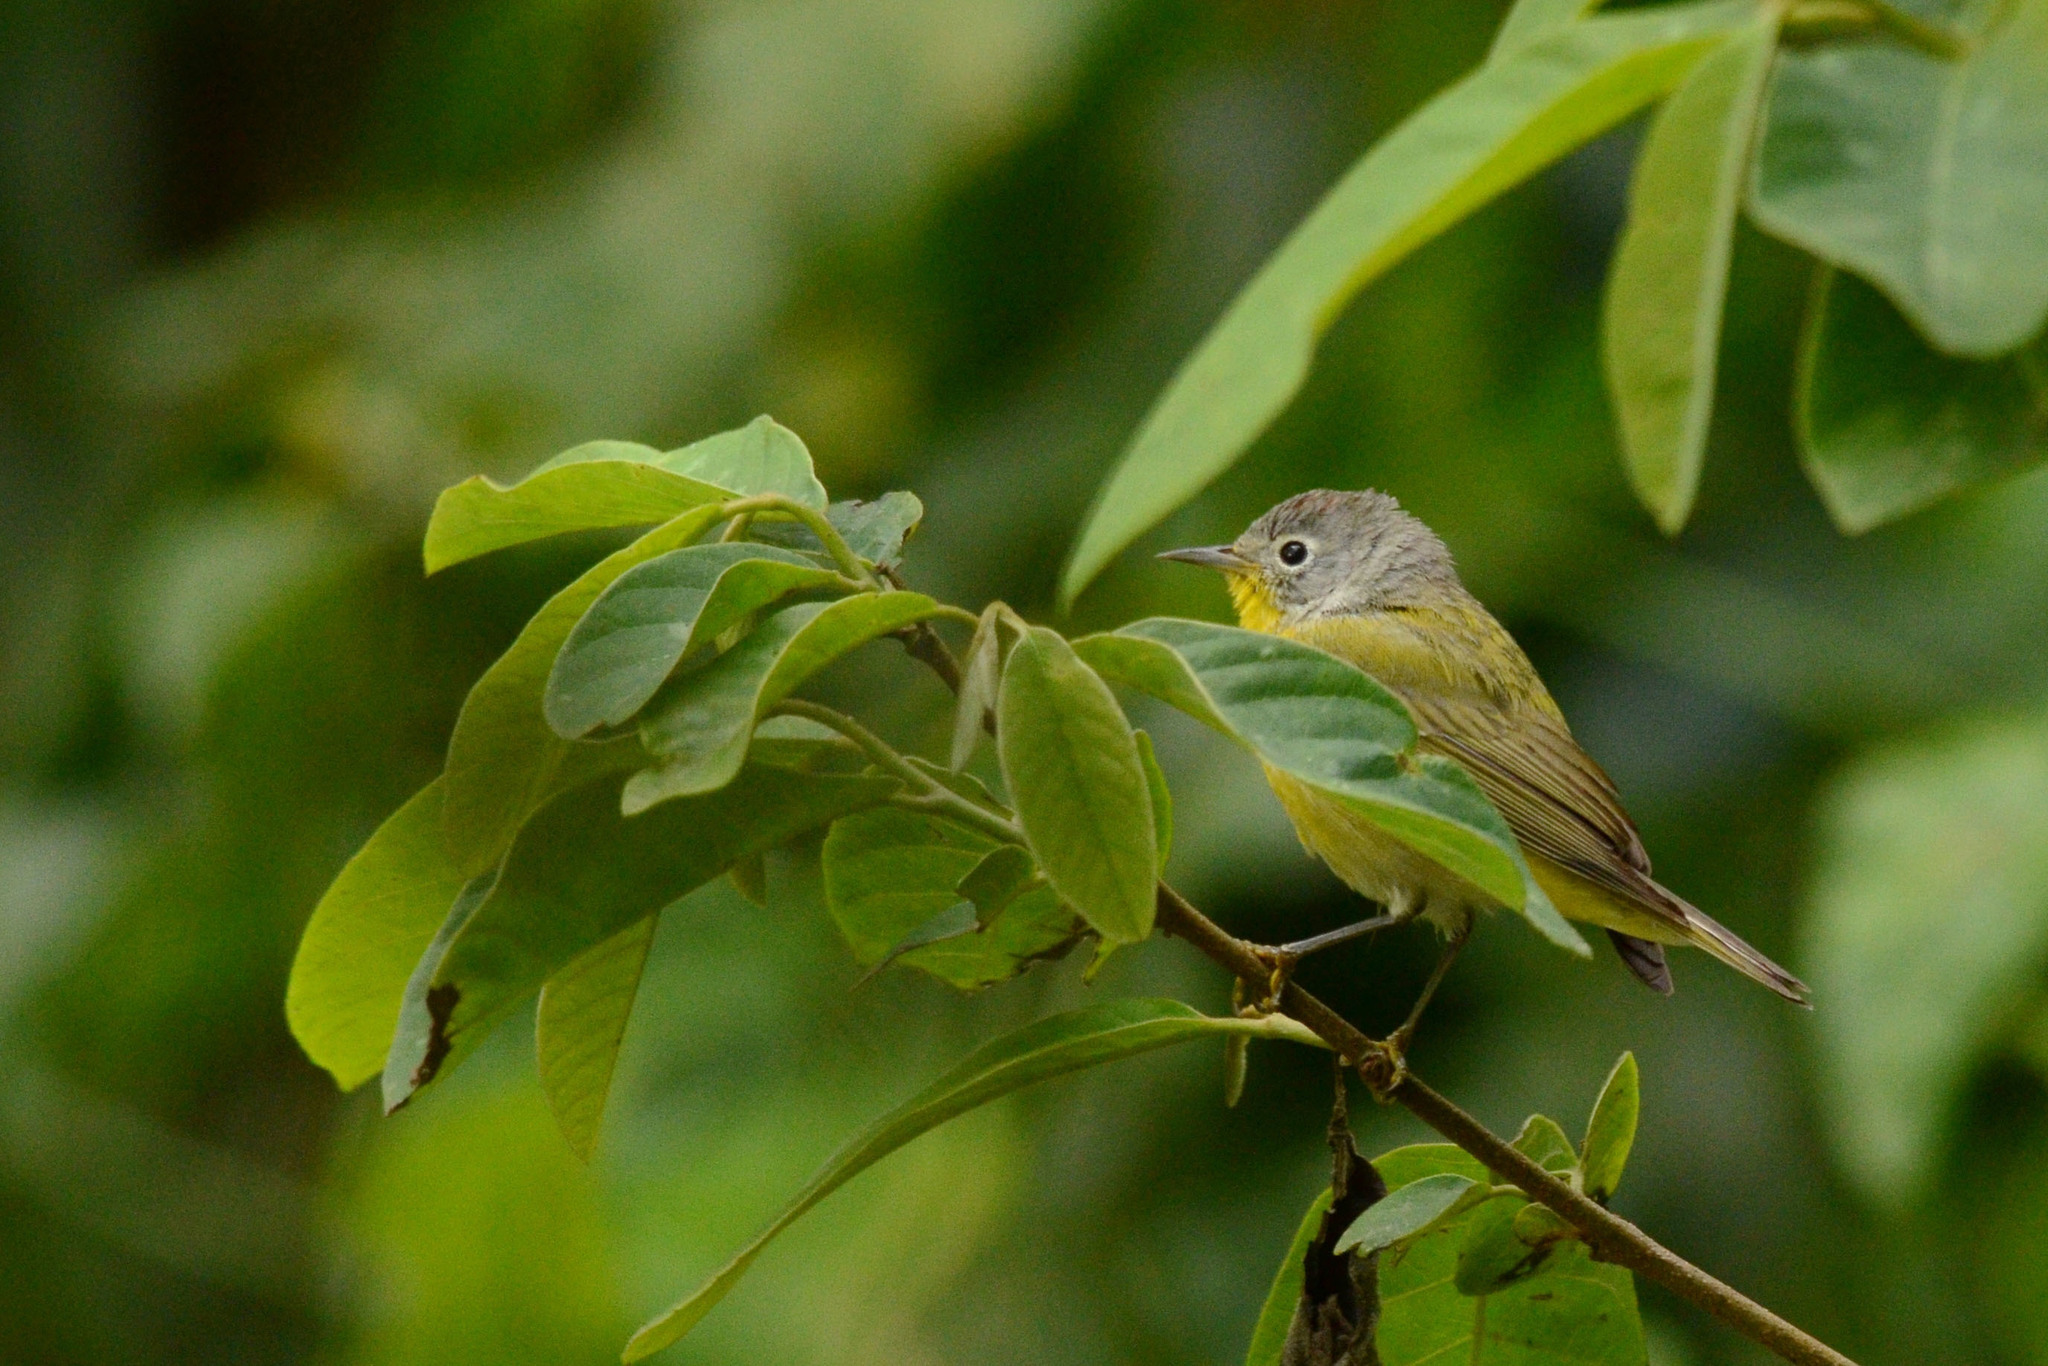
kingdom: Animalia
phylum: Chordata
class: Aves
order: Passeriformes
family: Parulidae
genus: Leiothlypis
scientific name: Leiothlypis ruficapilla
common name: Nashville warbler
